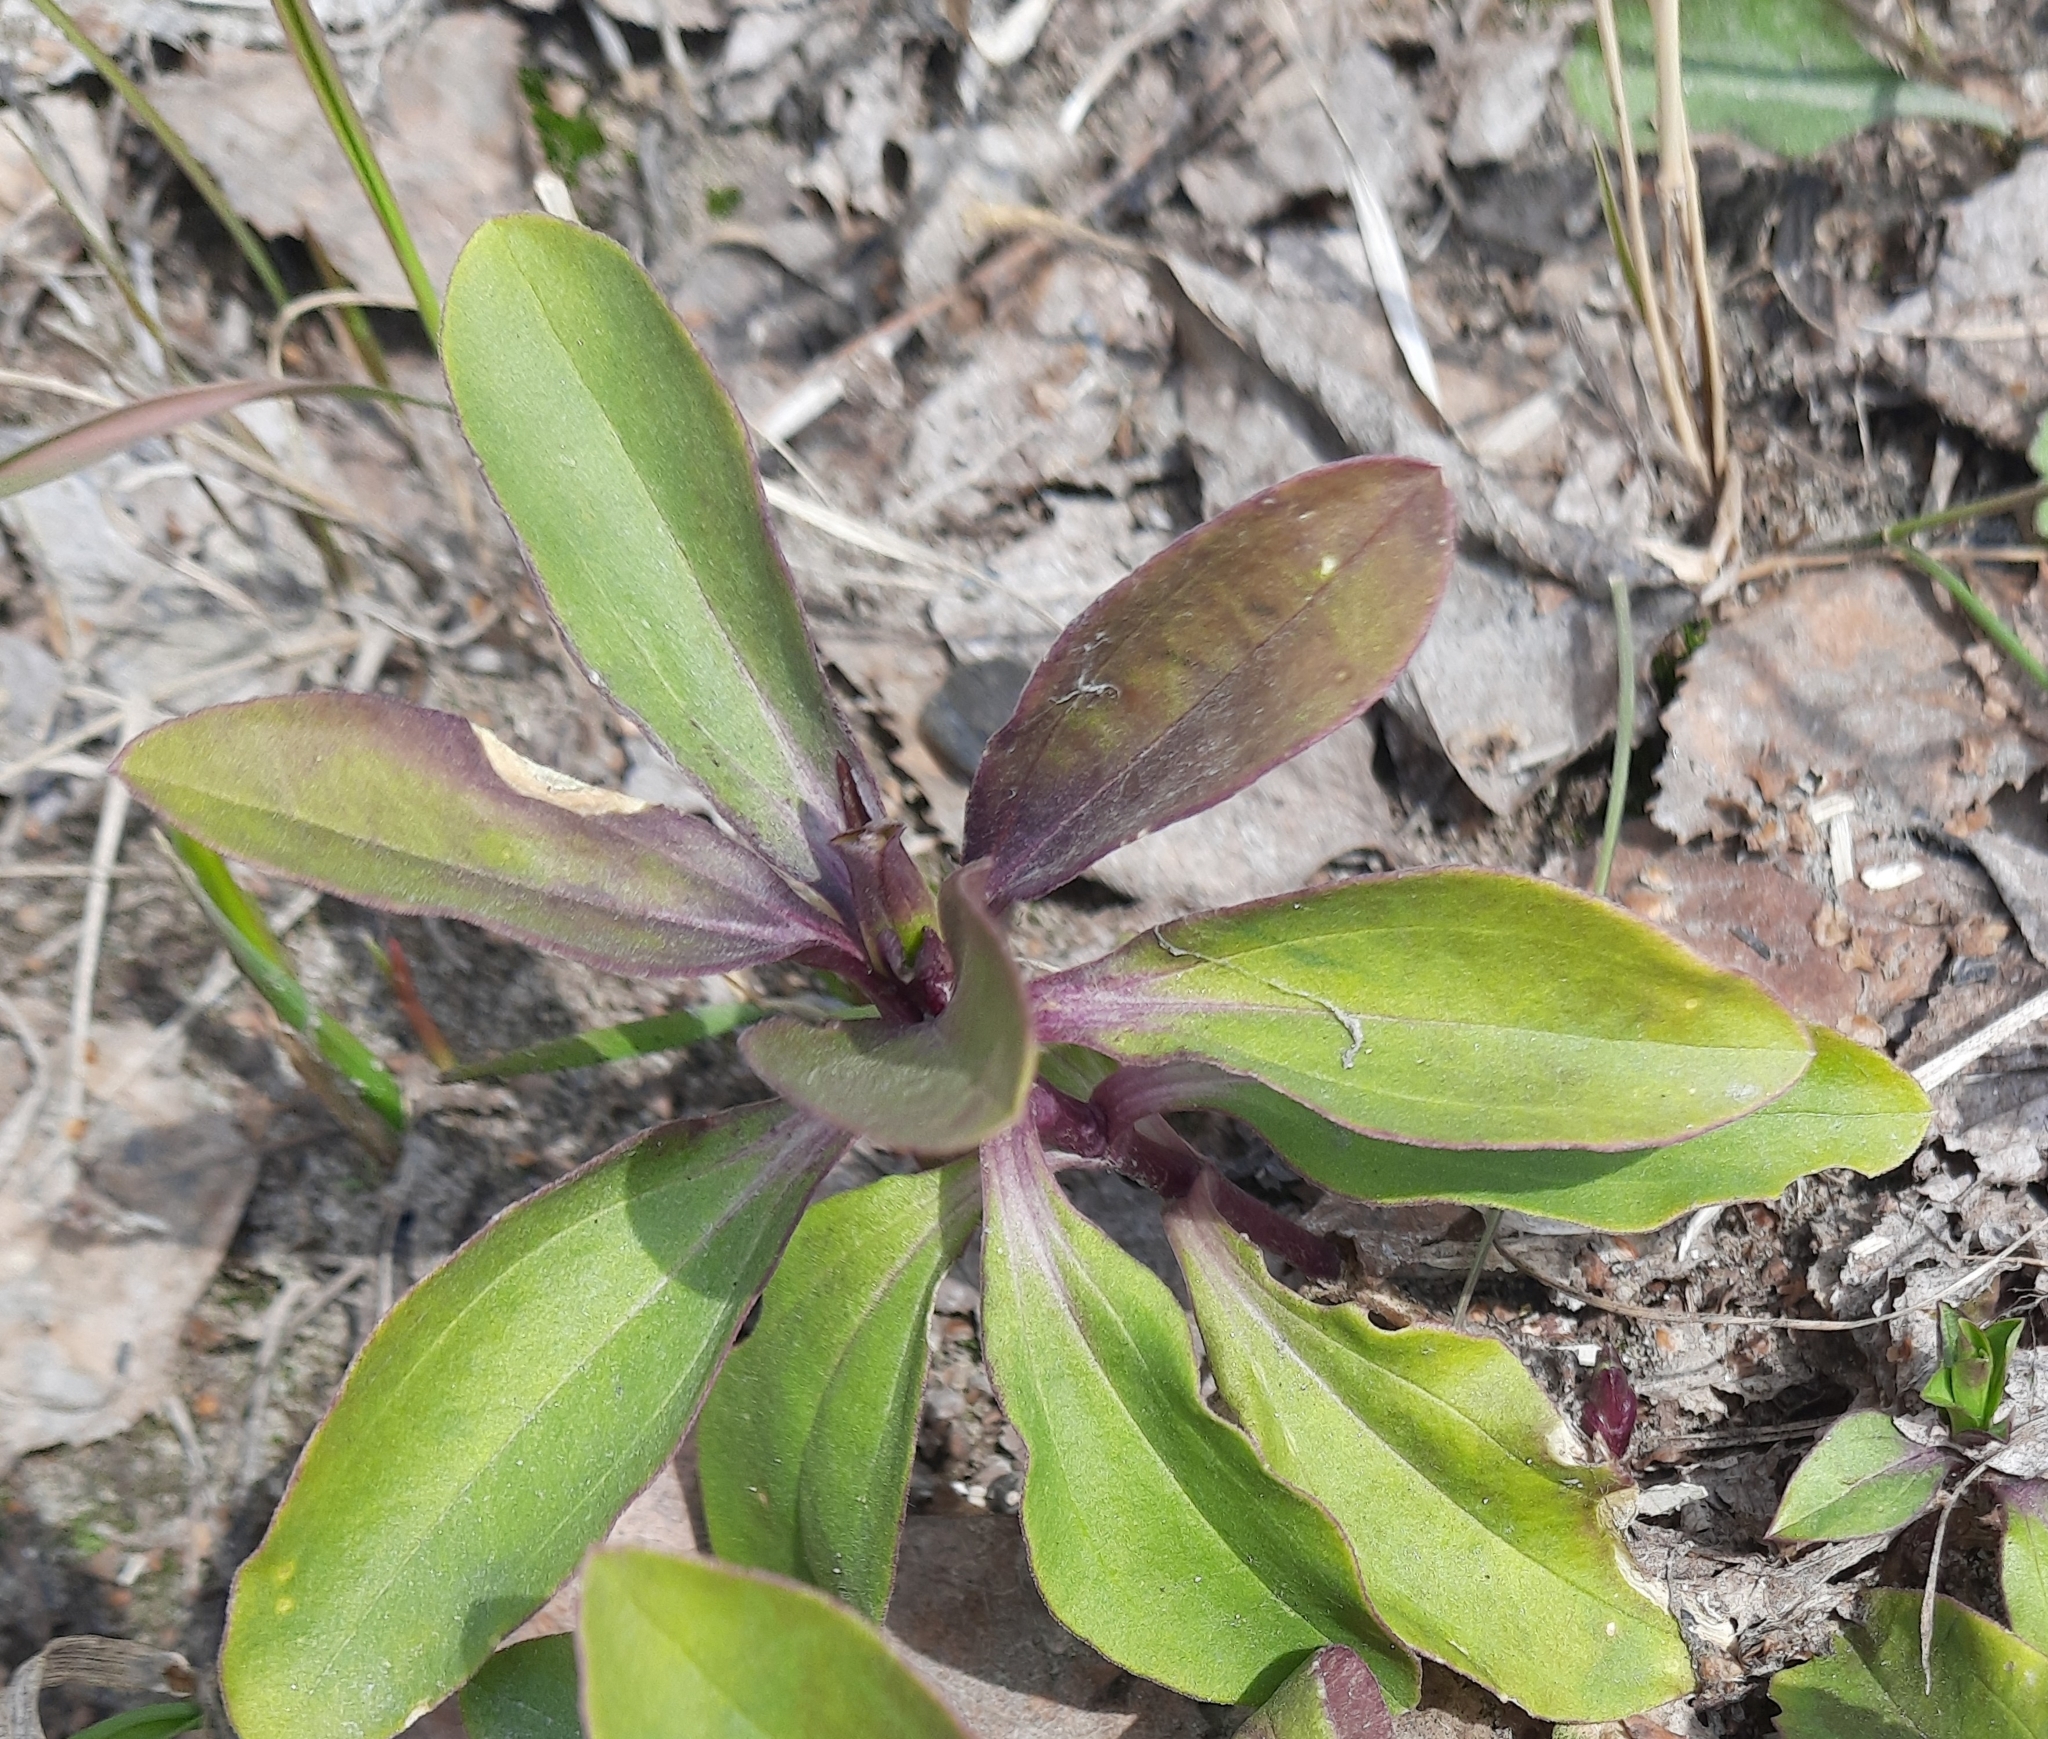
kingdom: Plantae
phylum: Tracheophyta
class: Magnoliopsida
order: Caryophyllales
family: Caryophyllaceae
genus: Saponaria
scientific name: Saponaria officinalis
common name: Soapwort
